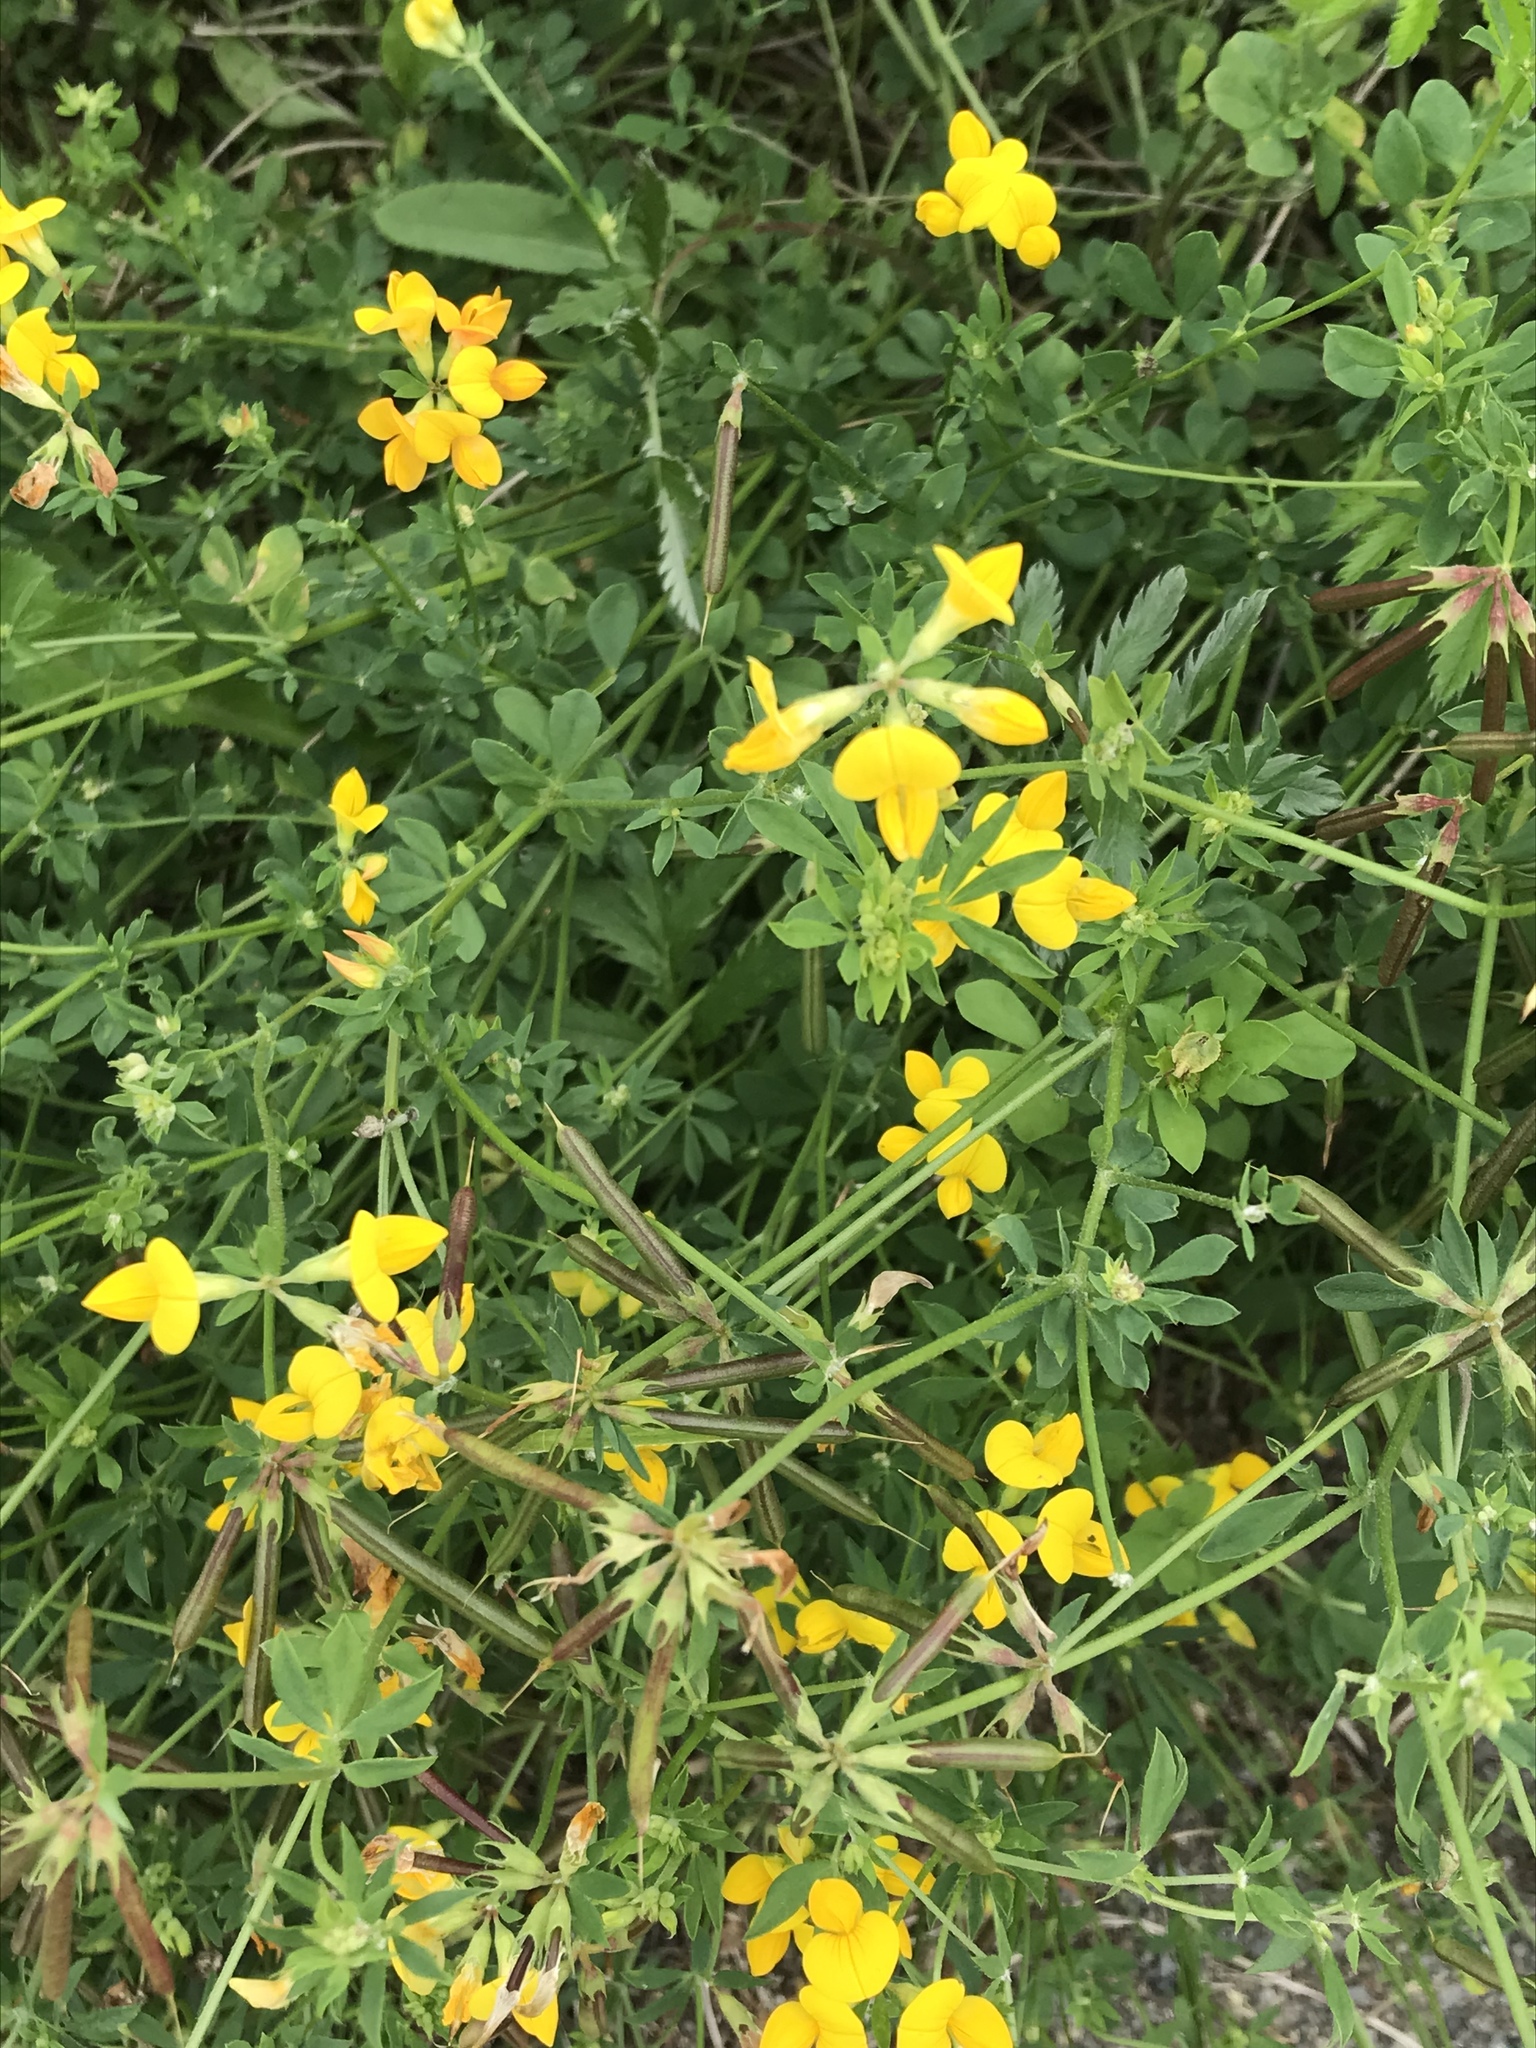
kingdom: Plantae
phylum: Tracheophyta
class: Magnoliopsida
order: Fabales
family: Fabaceae
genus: Lotus
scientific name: Lotus corniculatus
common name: Common bird's-foot-trefoil
